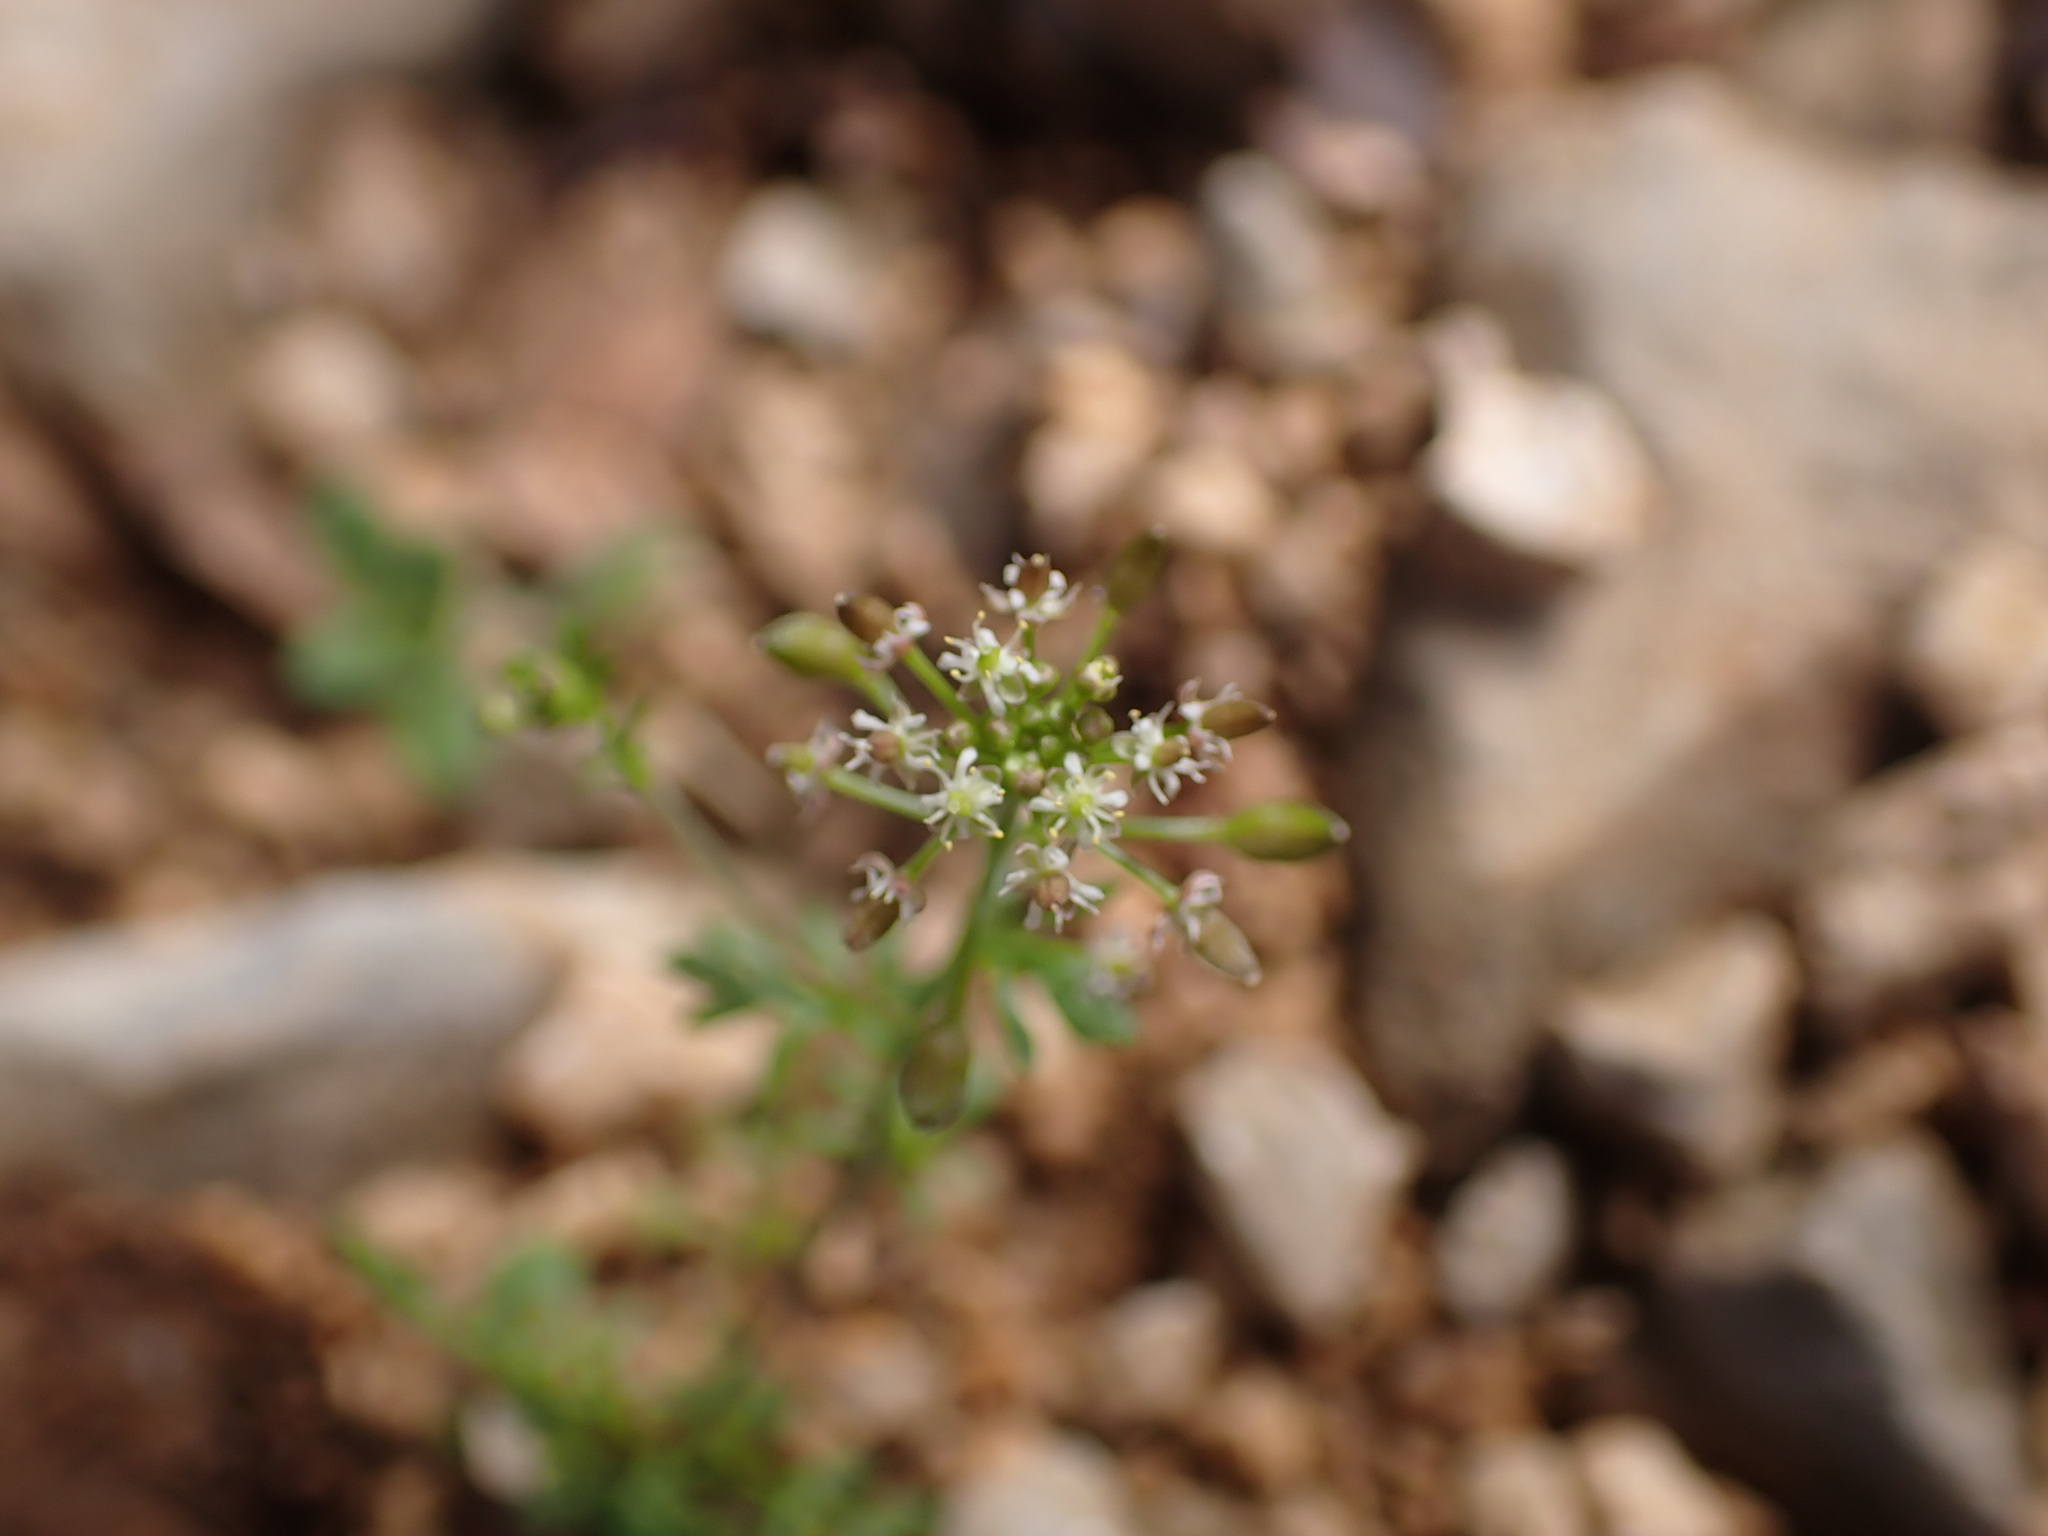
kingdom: Plantae
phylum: Tracheophyta
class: Magnoliopsida
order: Brassicales
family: Brassicaceae
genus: Hornungia
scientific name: Hornungia petraea
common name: Hutchinsia
